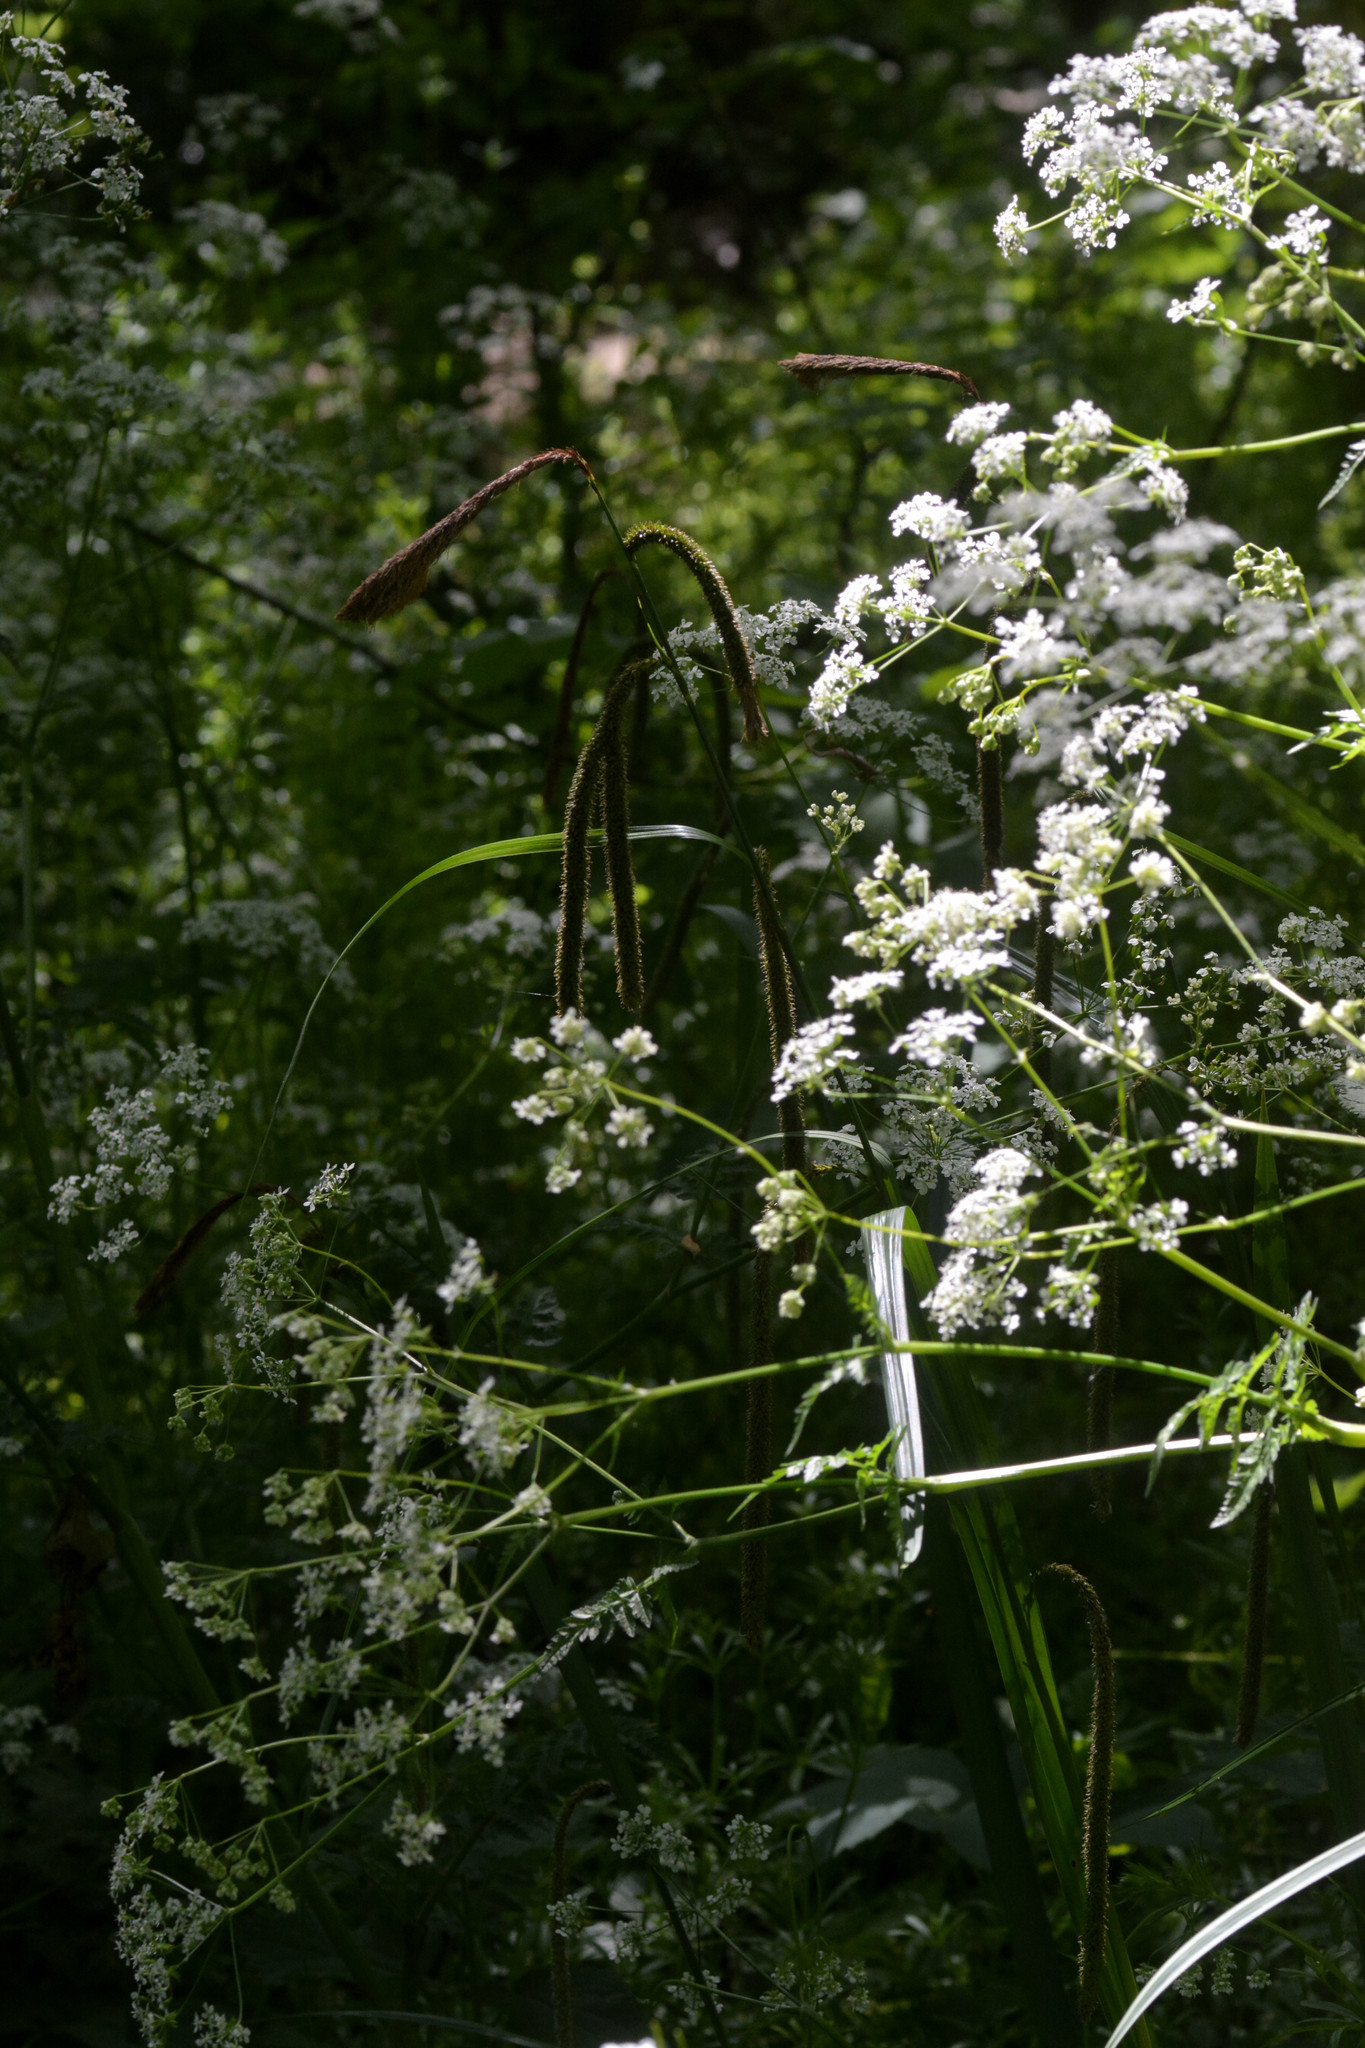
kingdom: Plantae
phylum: Tracheophyta
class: Liliopsida
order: Poales
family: Cyperaceae
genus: Carex
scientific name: Carex pendula
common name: Pendulous sedge
